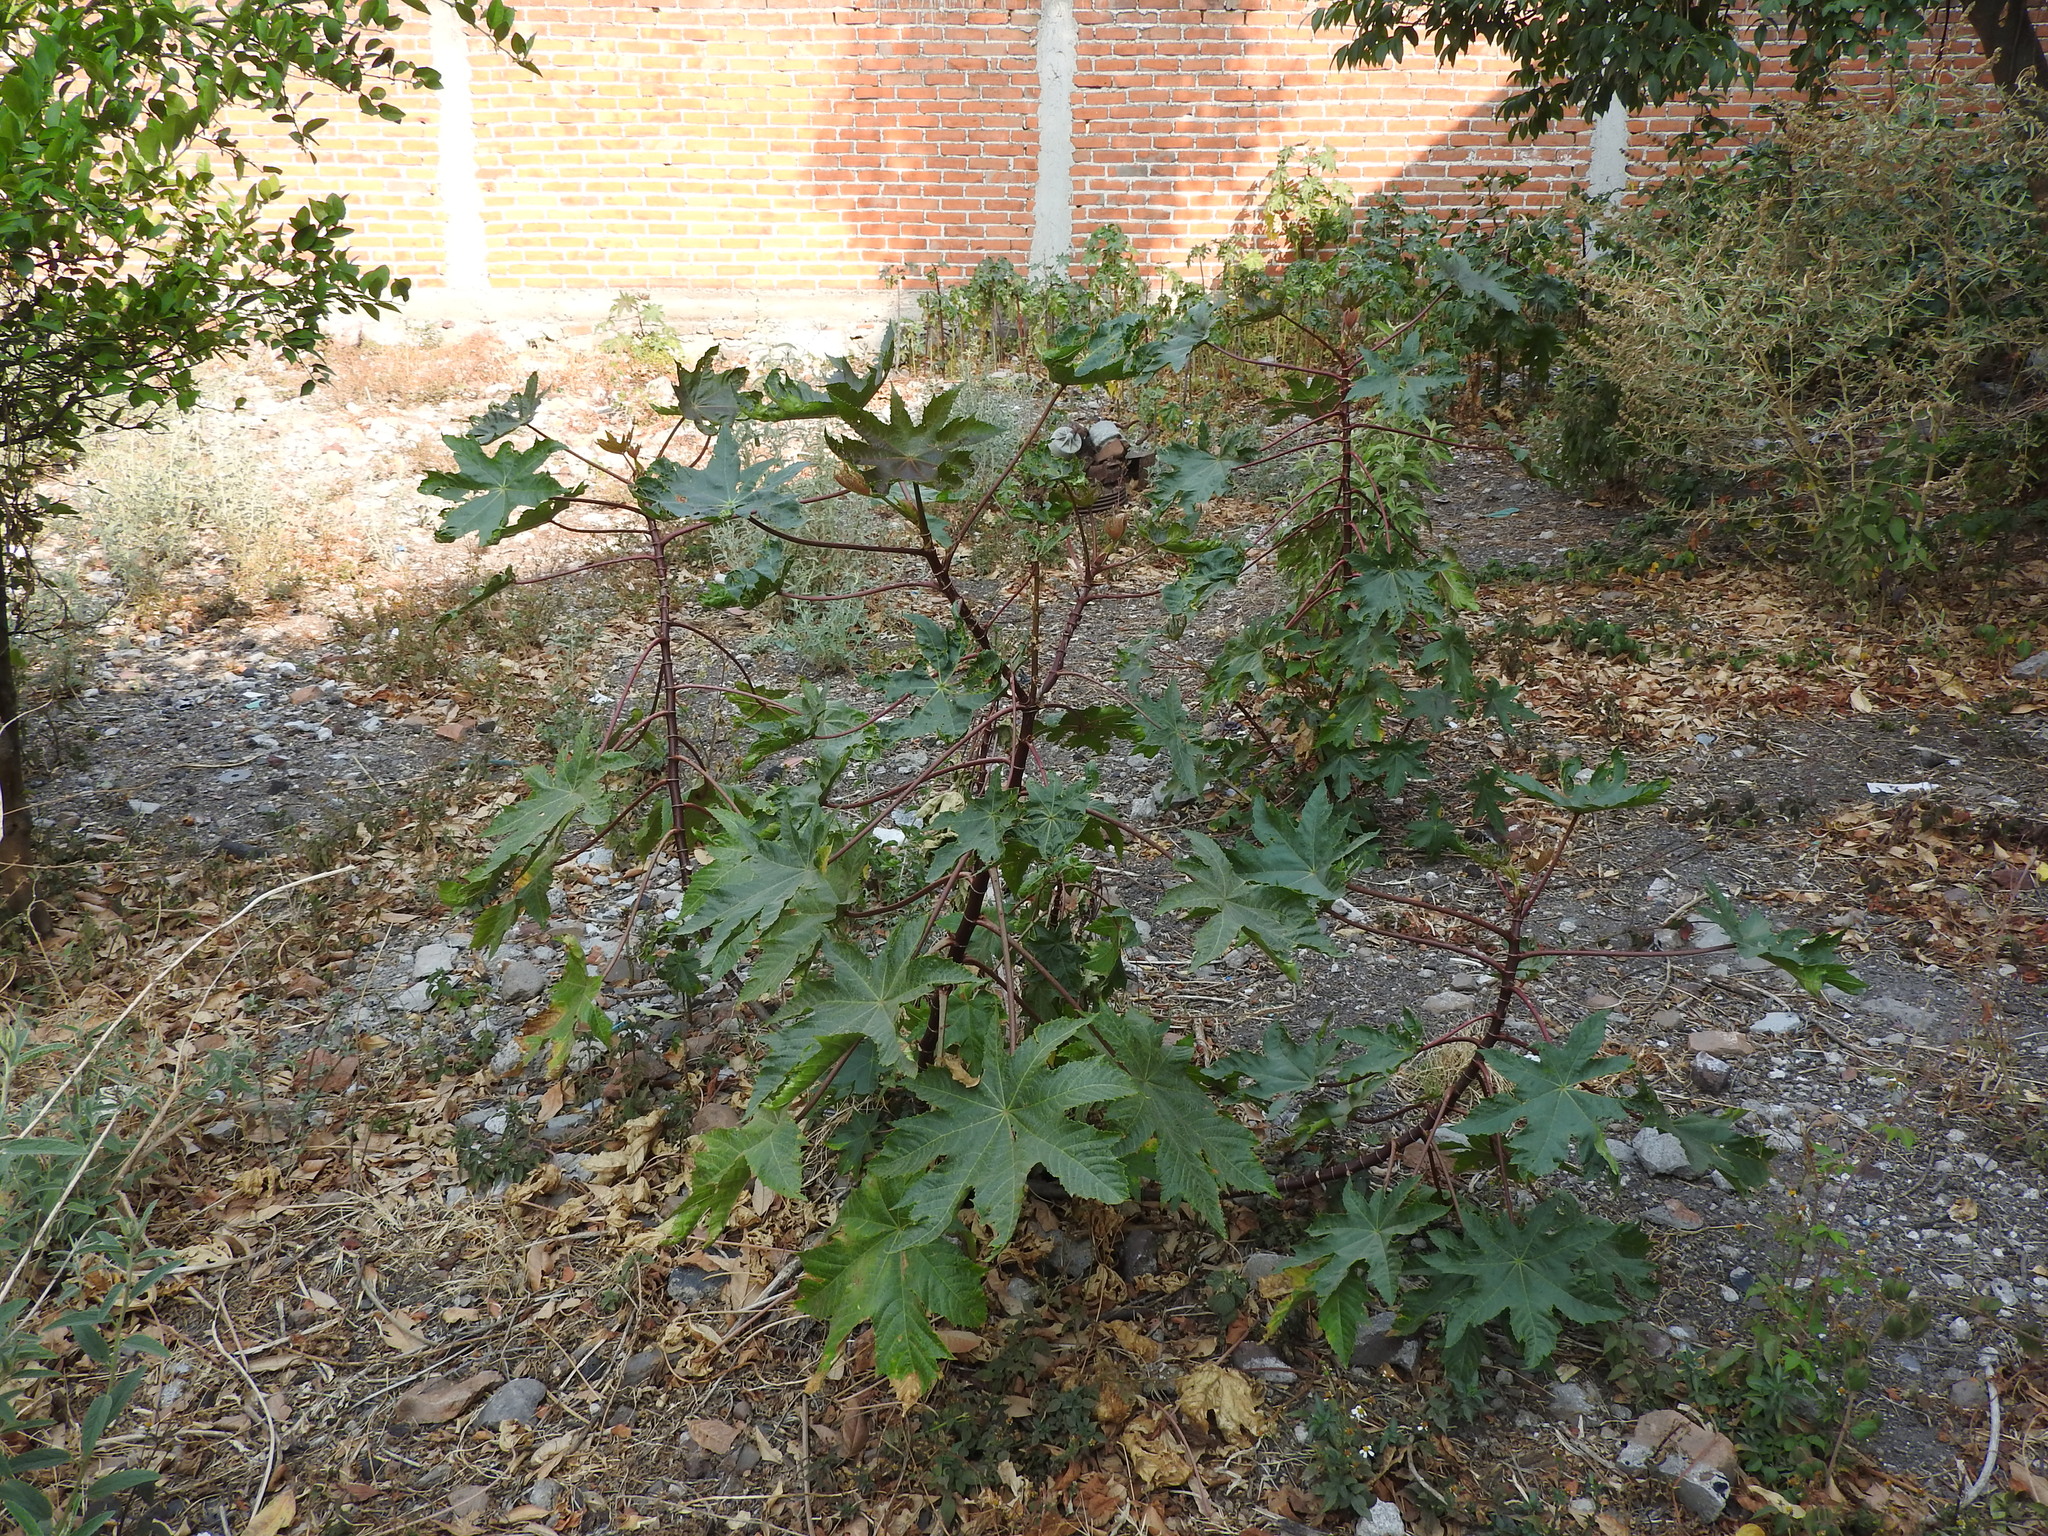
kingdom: Plantae
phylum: Tracheophyta
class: Magnoliopsida
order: Malpighiales
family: Euphorbiaceae
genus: Ricinus
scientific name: Ricinus communis
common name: Castor-oil-plant
